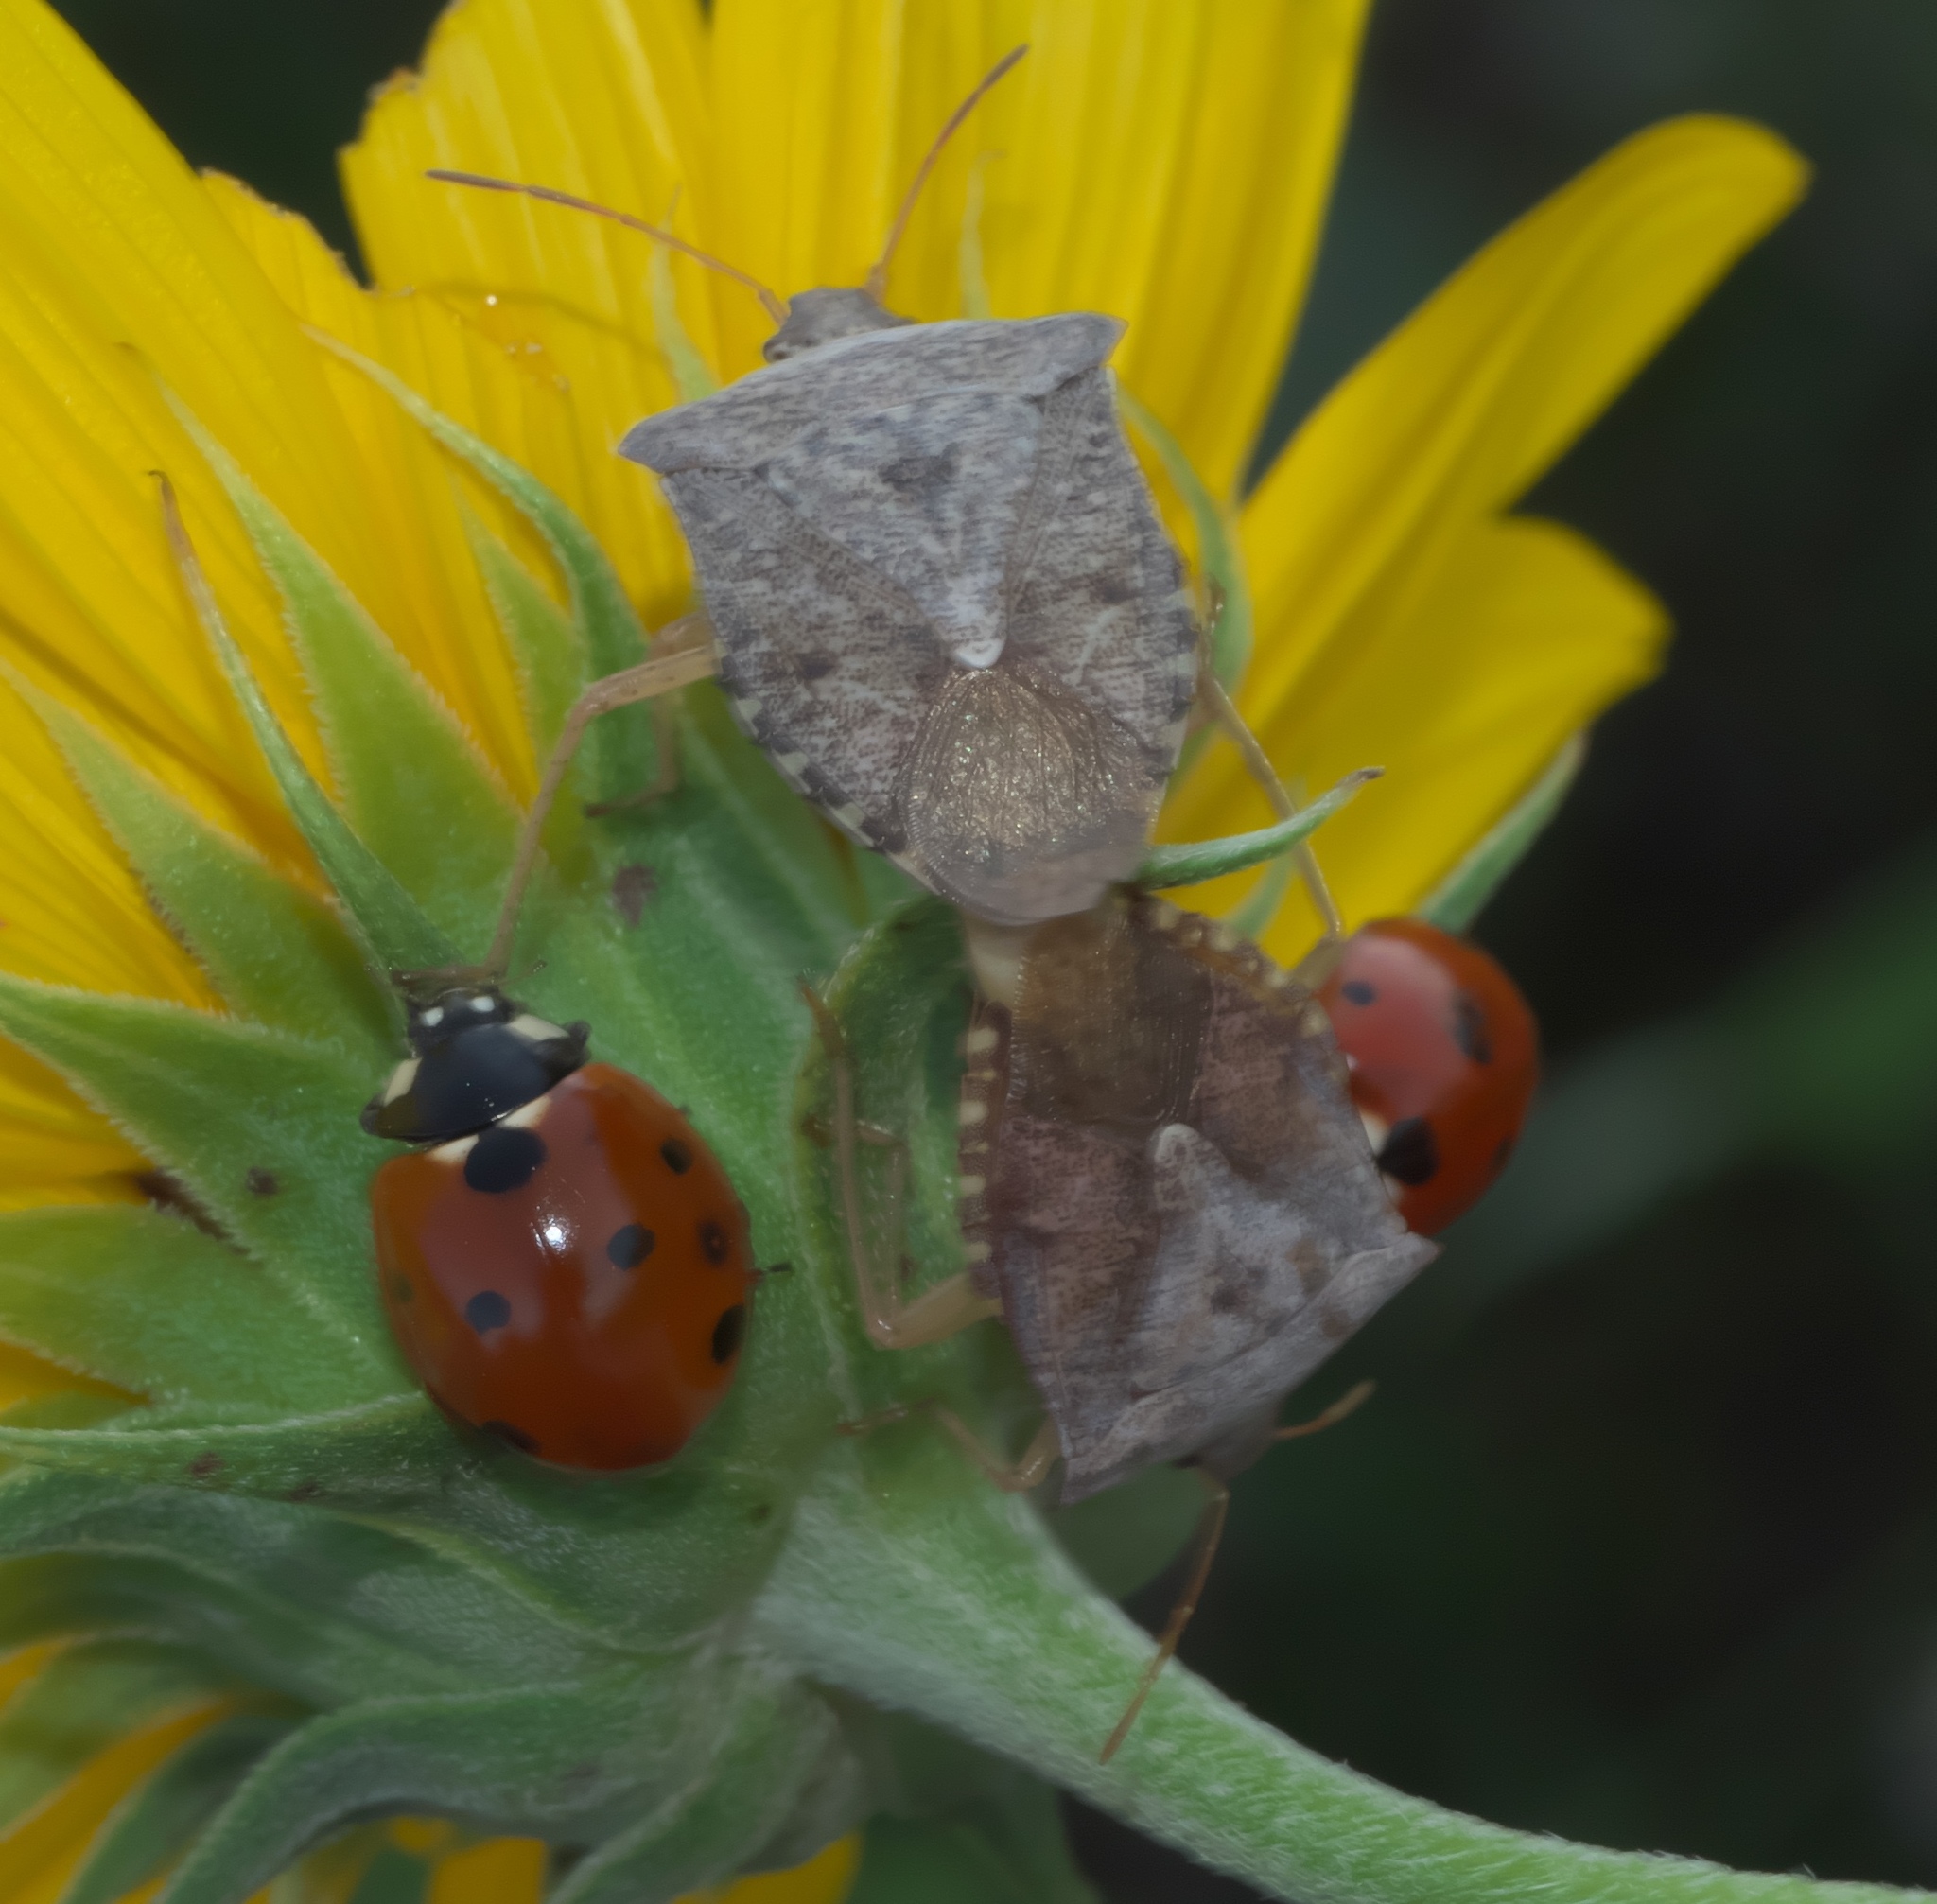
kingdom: Animalia
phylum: Arthropoda
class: Insecta
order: Coleoptera
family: Coccinellidae
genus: Coccinella
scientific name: Coccinella septempunctata
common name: Sevenspotted lady beetle
